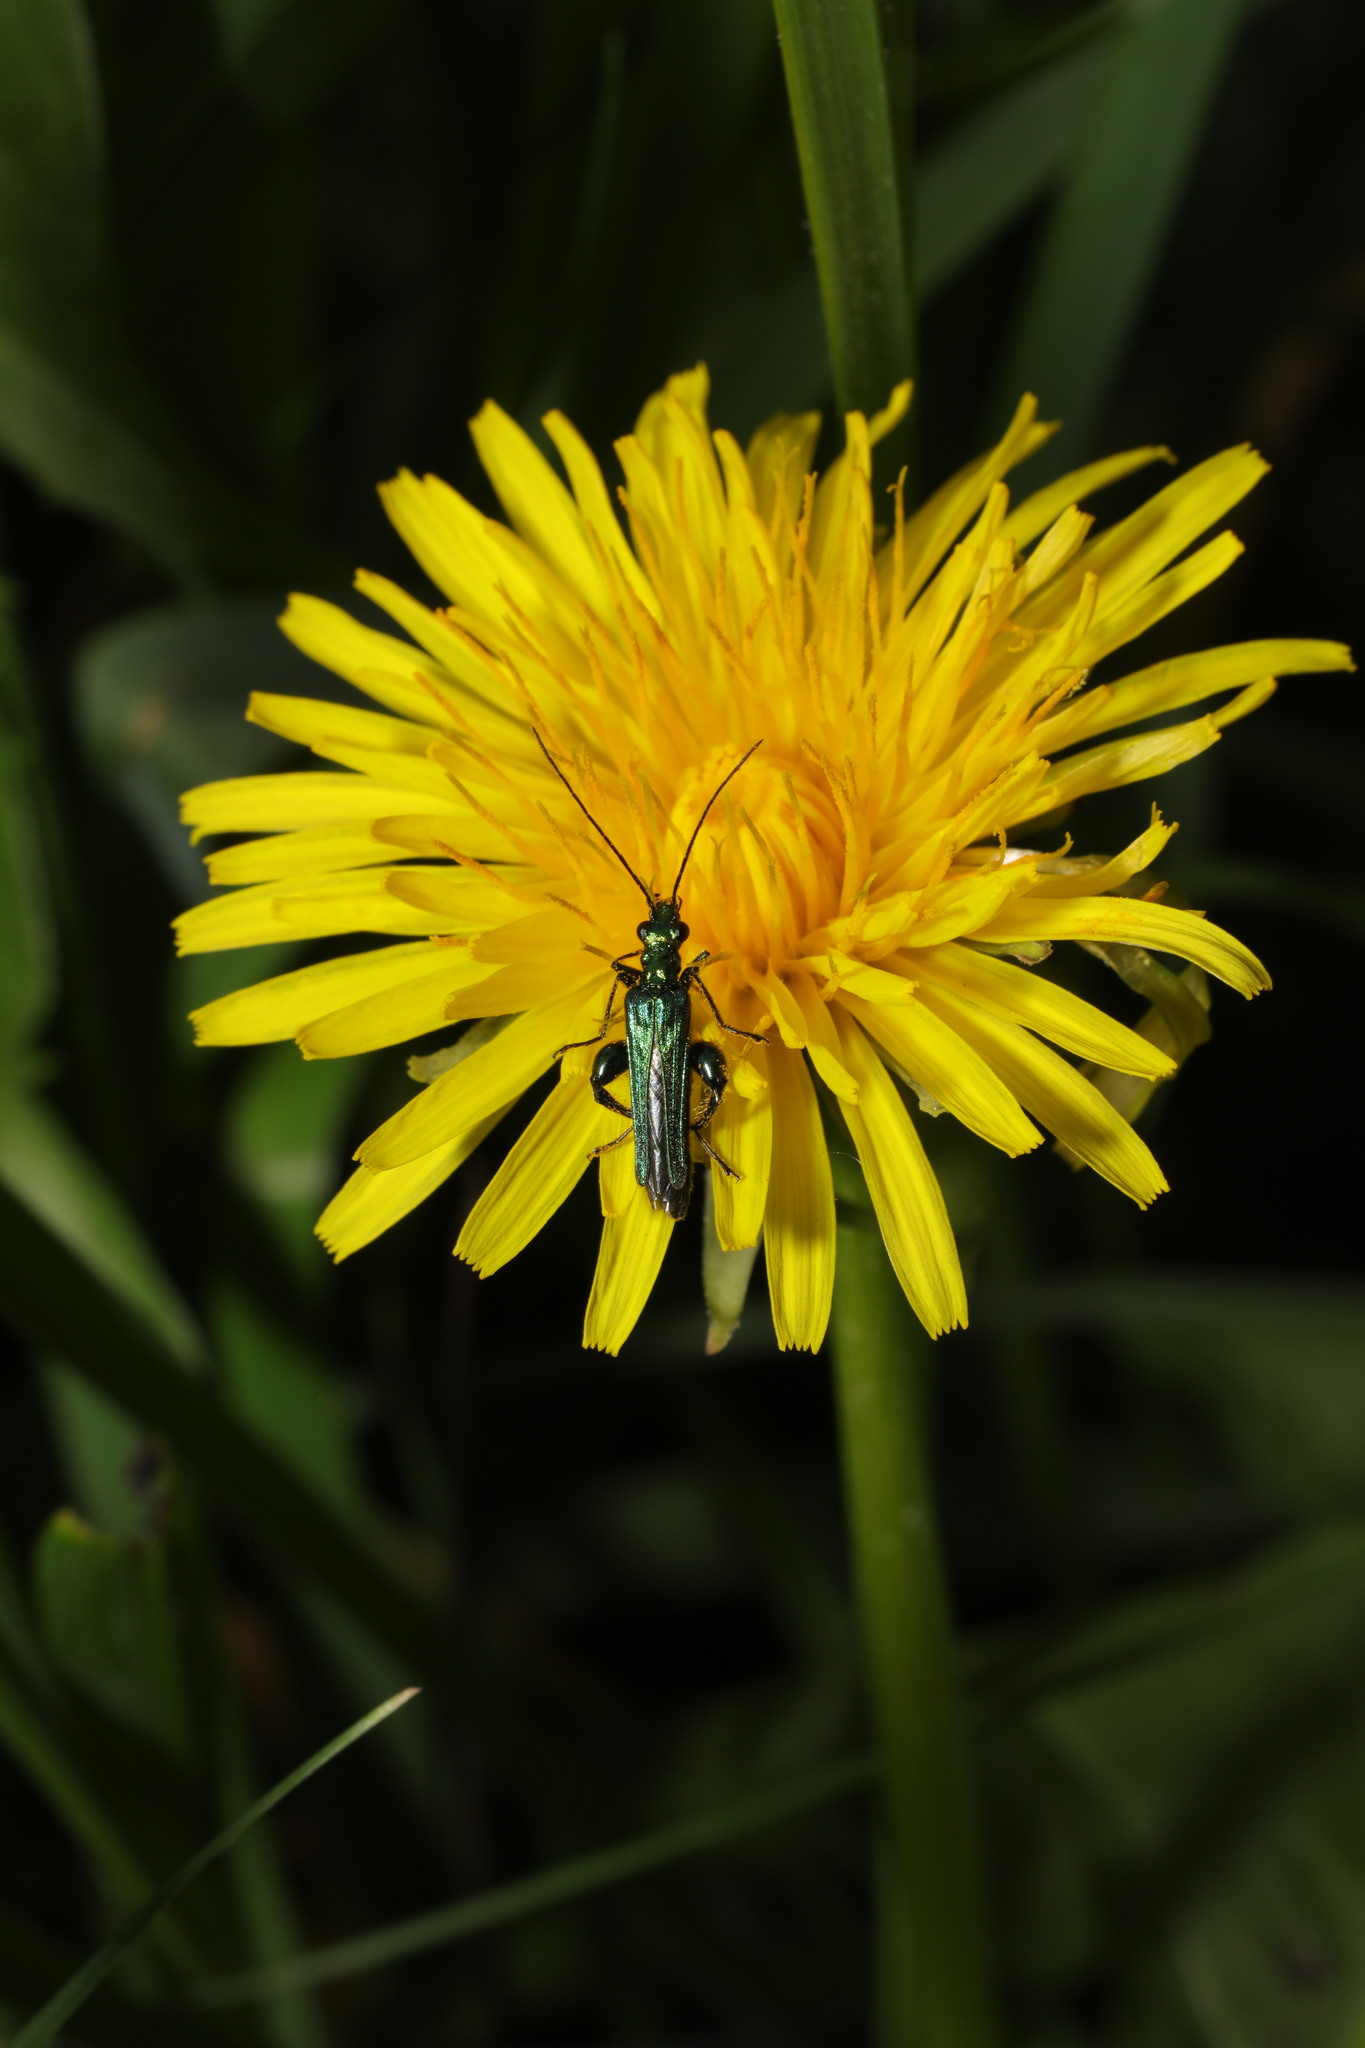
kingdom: Animalia
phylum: Arthropoda
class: Insecta
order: Coleoptera
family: Oedemeridae
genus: Oedemera
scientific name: Oedemera nobilis
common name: Swollen-thighed beetle
